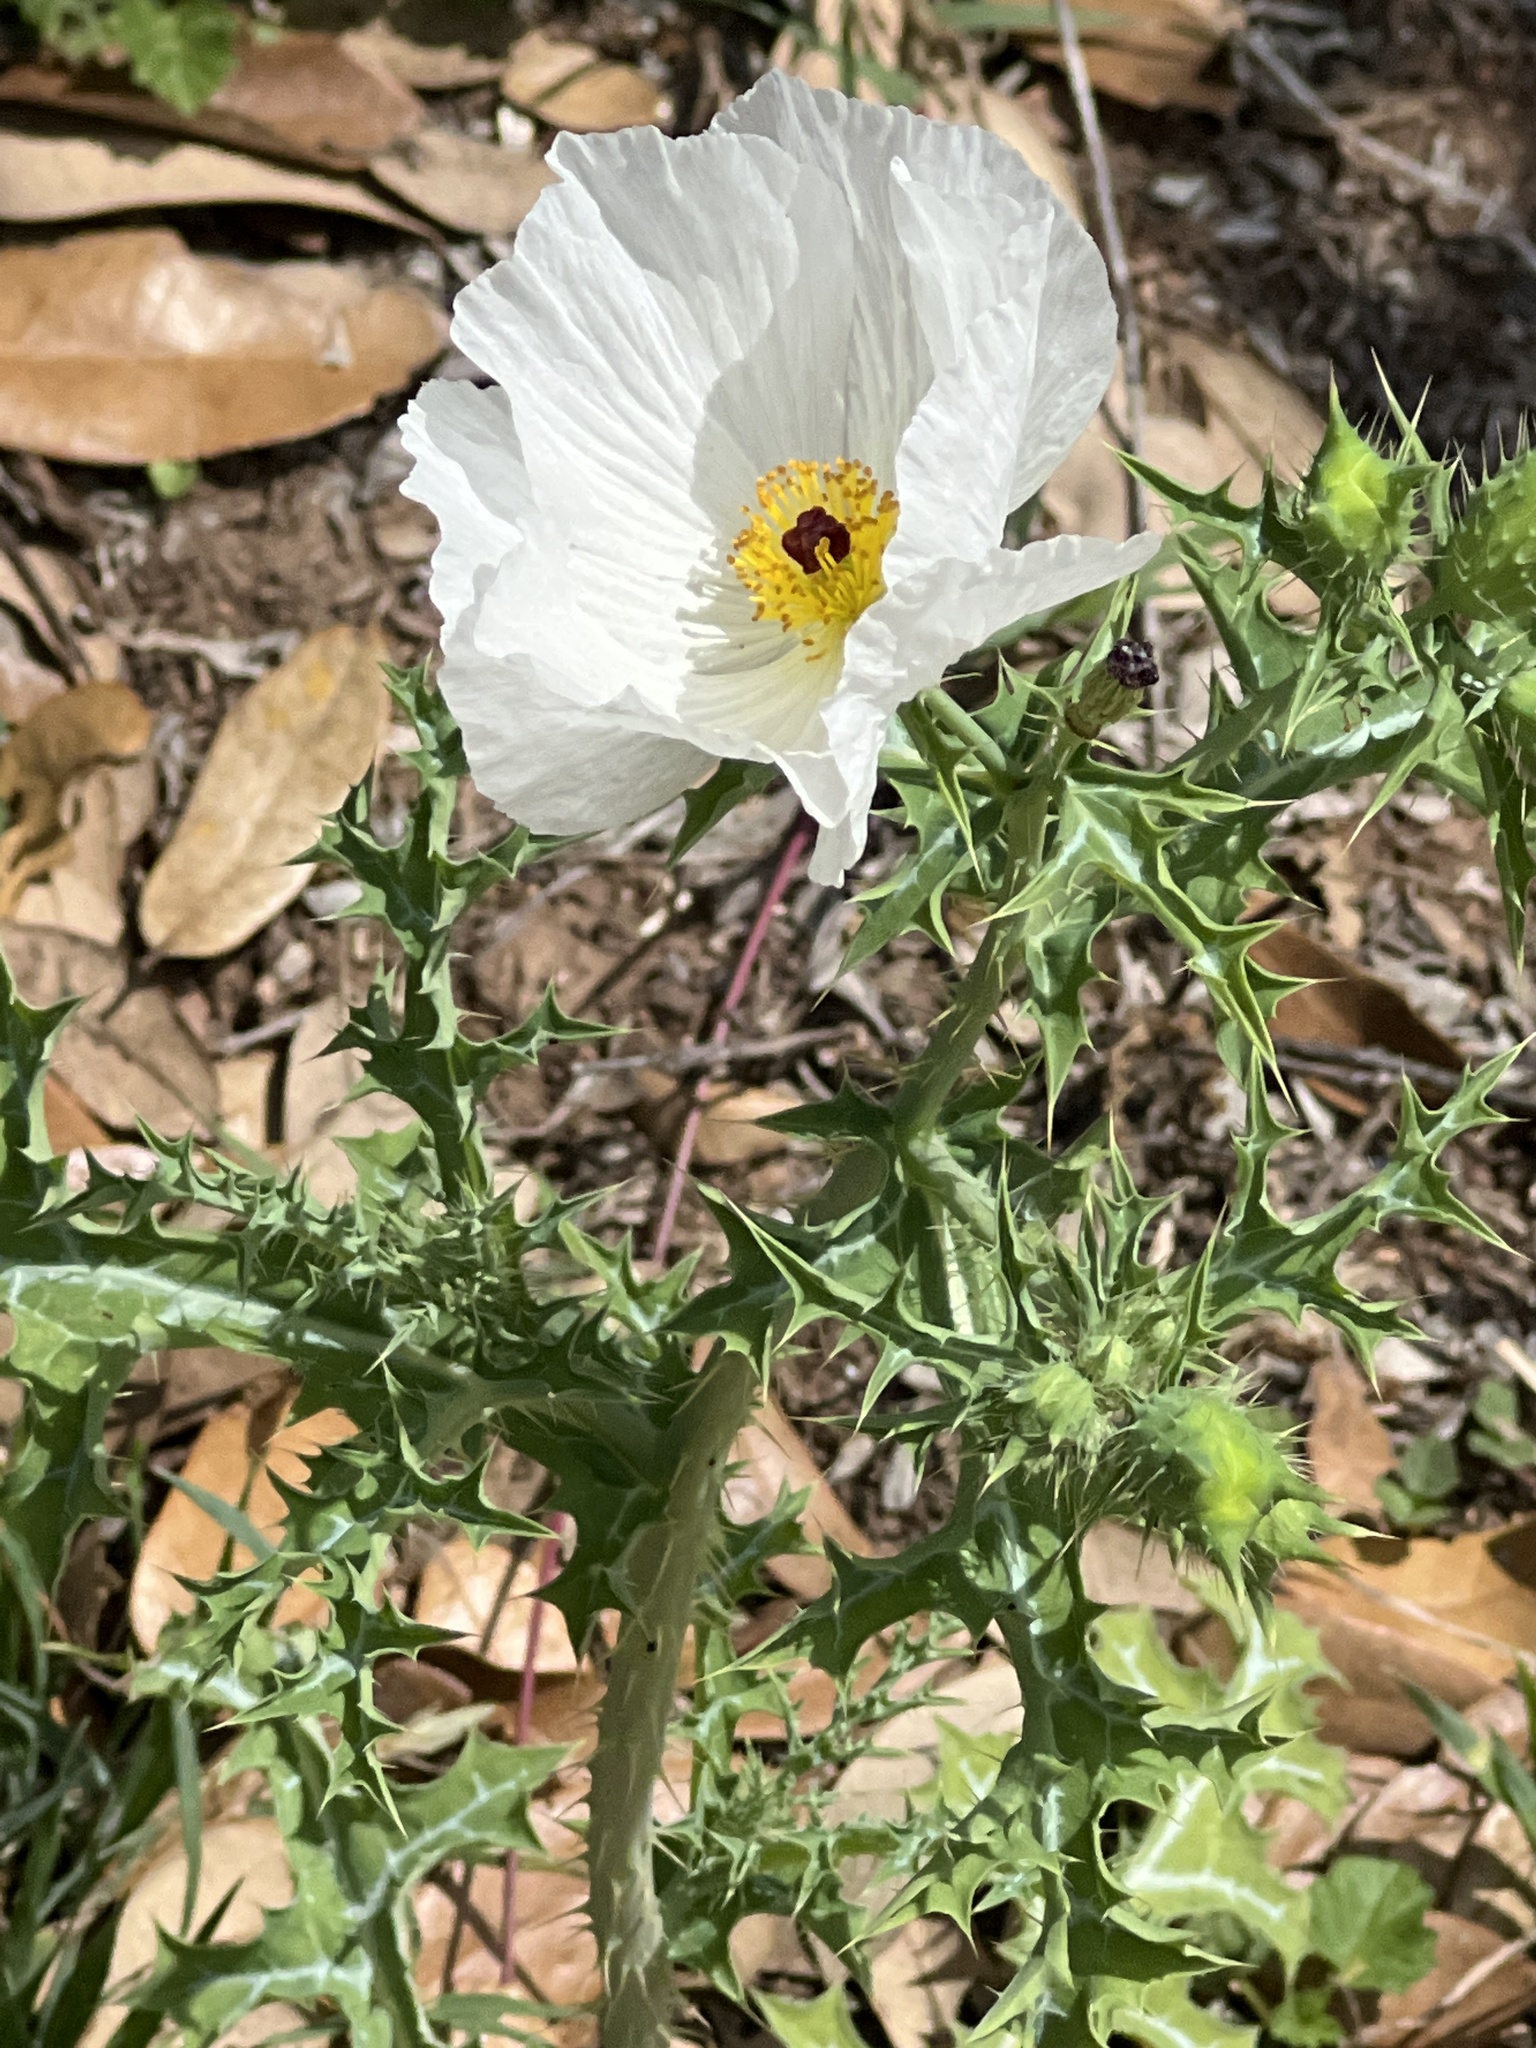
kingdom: Plantae
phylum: Tracheophyta
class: Magnoliopsida
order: Ranunculales
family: Papaveraceae
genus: Argemone
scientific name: Argemone albiflora
